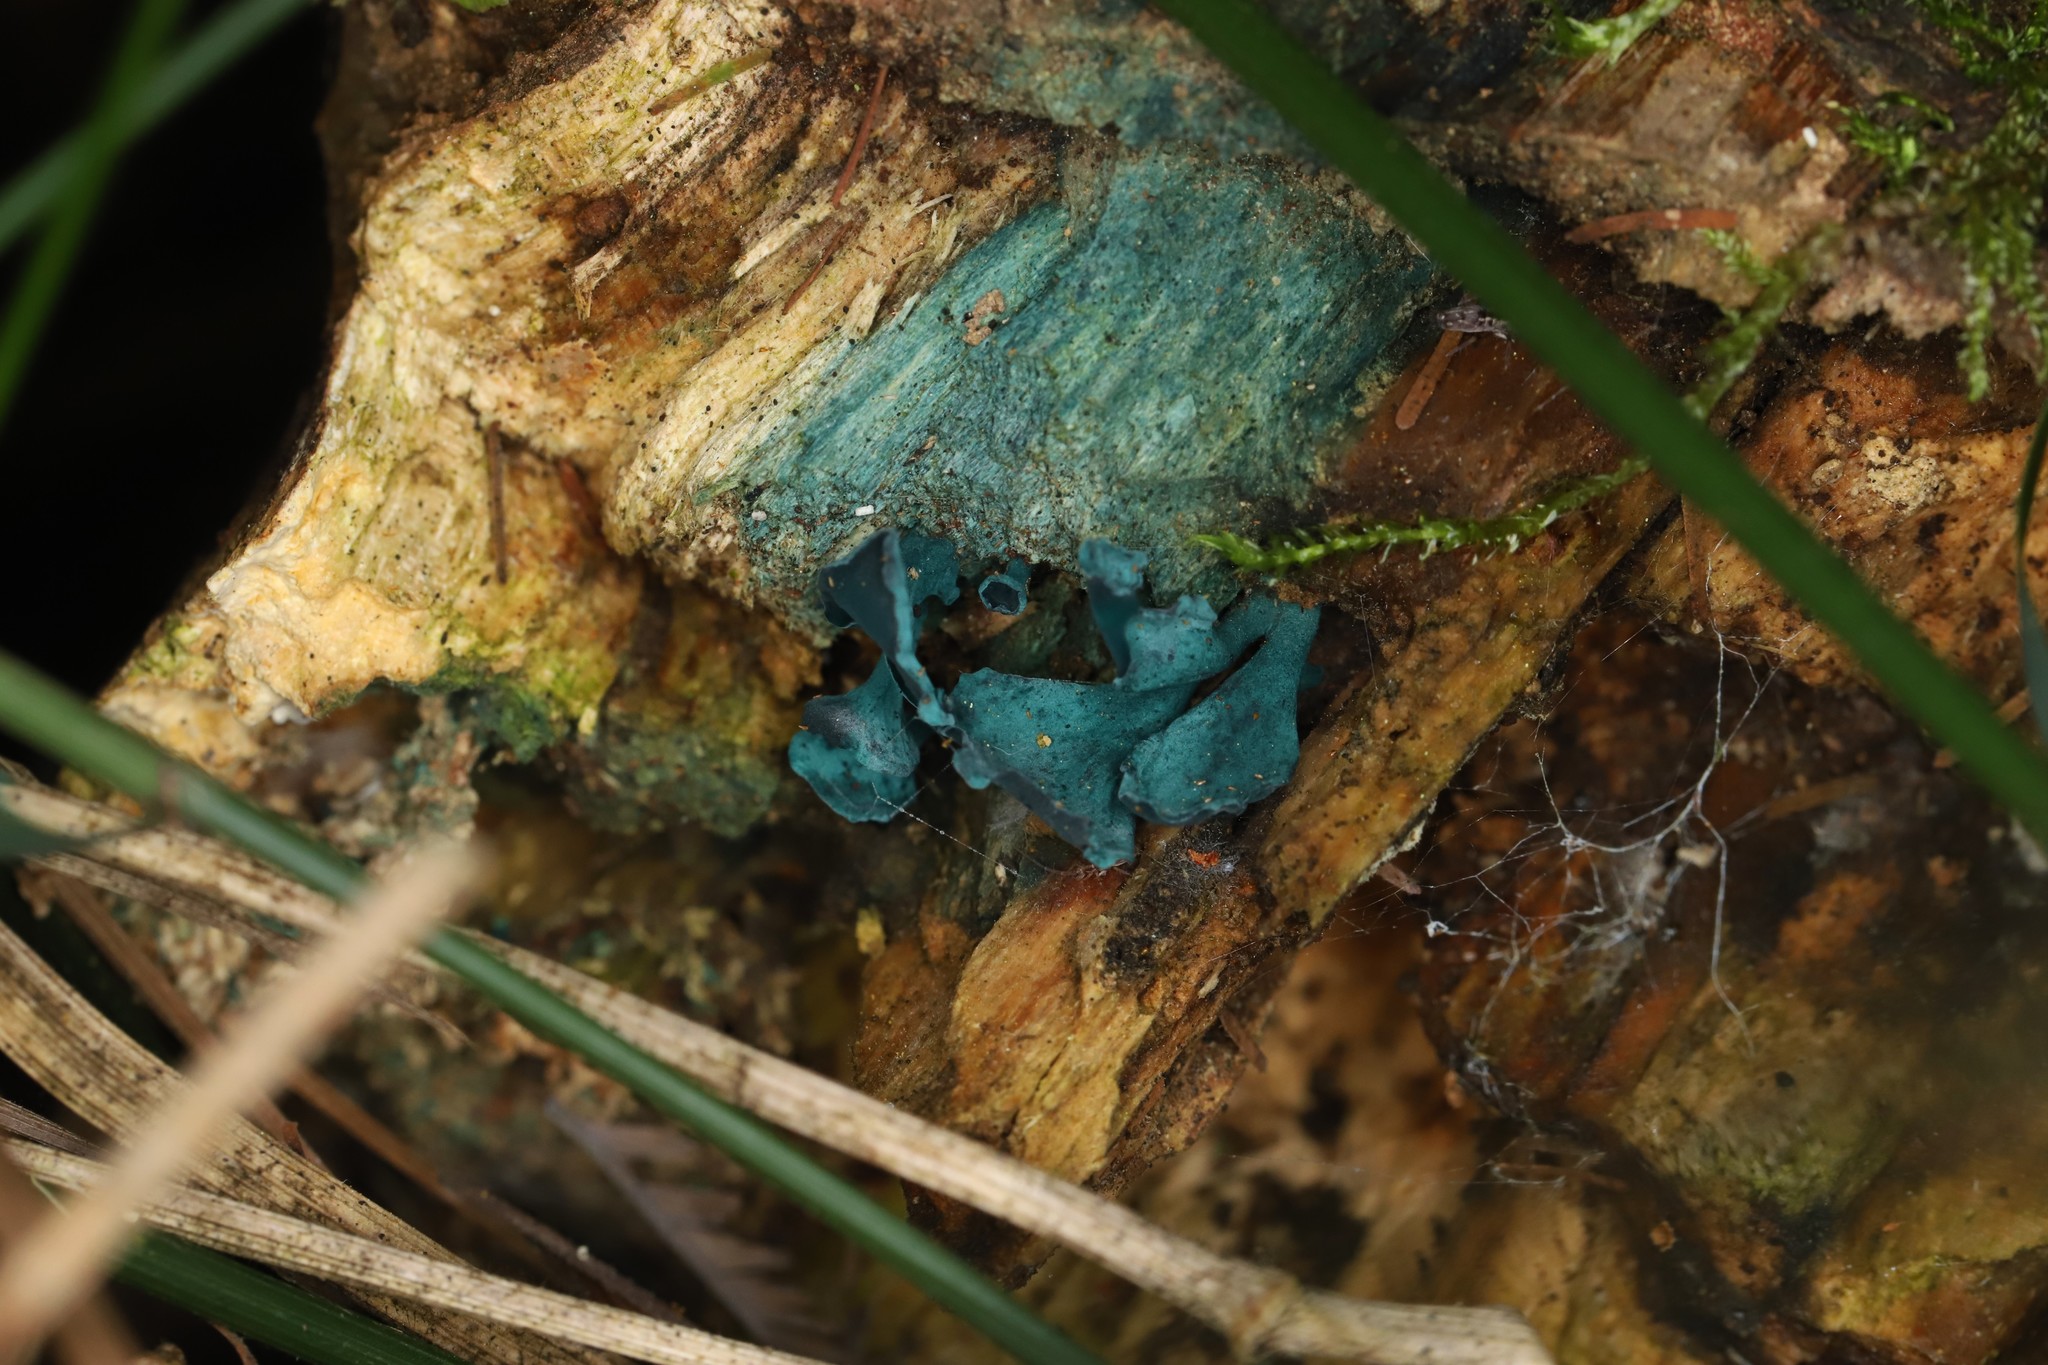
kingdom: Fungi
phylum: Ascomycota
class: Leotiomycetes
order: Helotiales
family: Chlorociboriaceae
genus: Chlorociboria
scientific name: Chlorociboria
